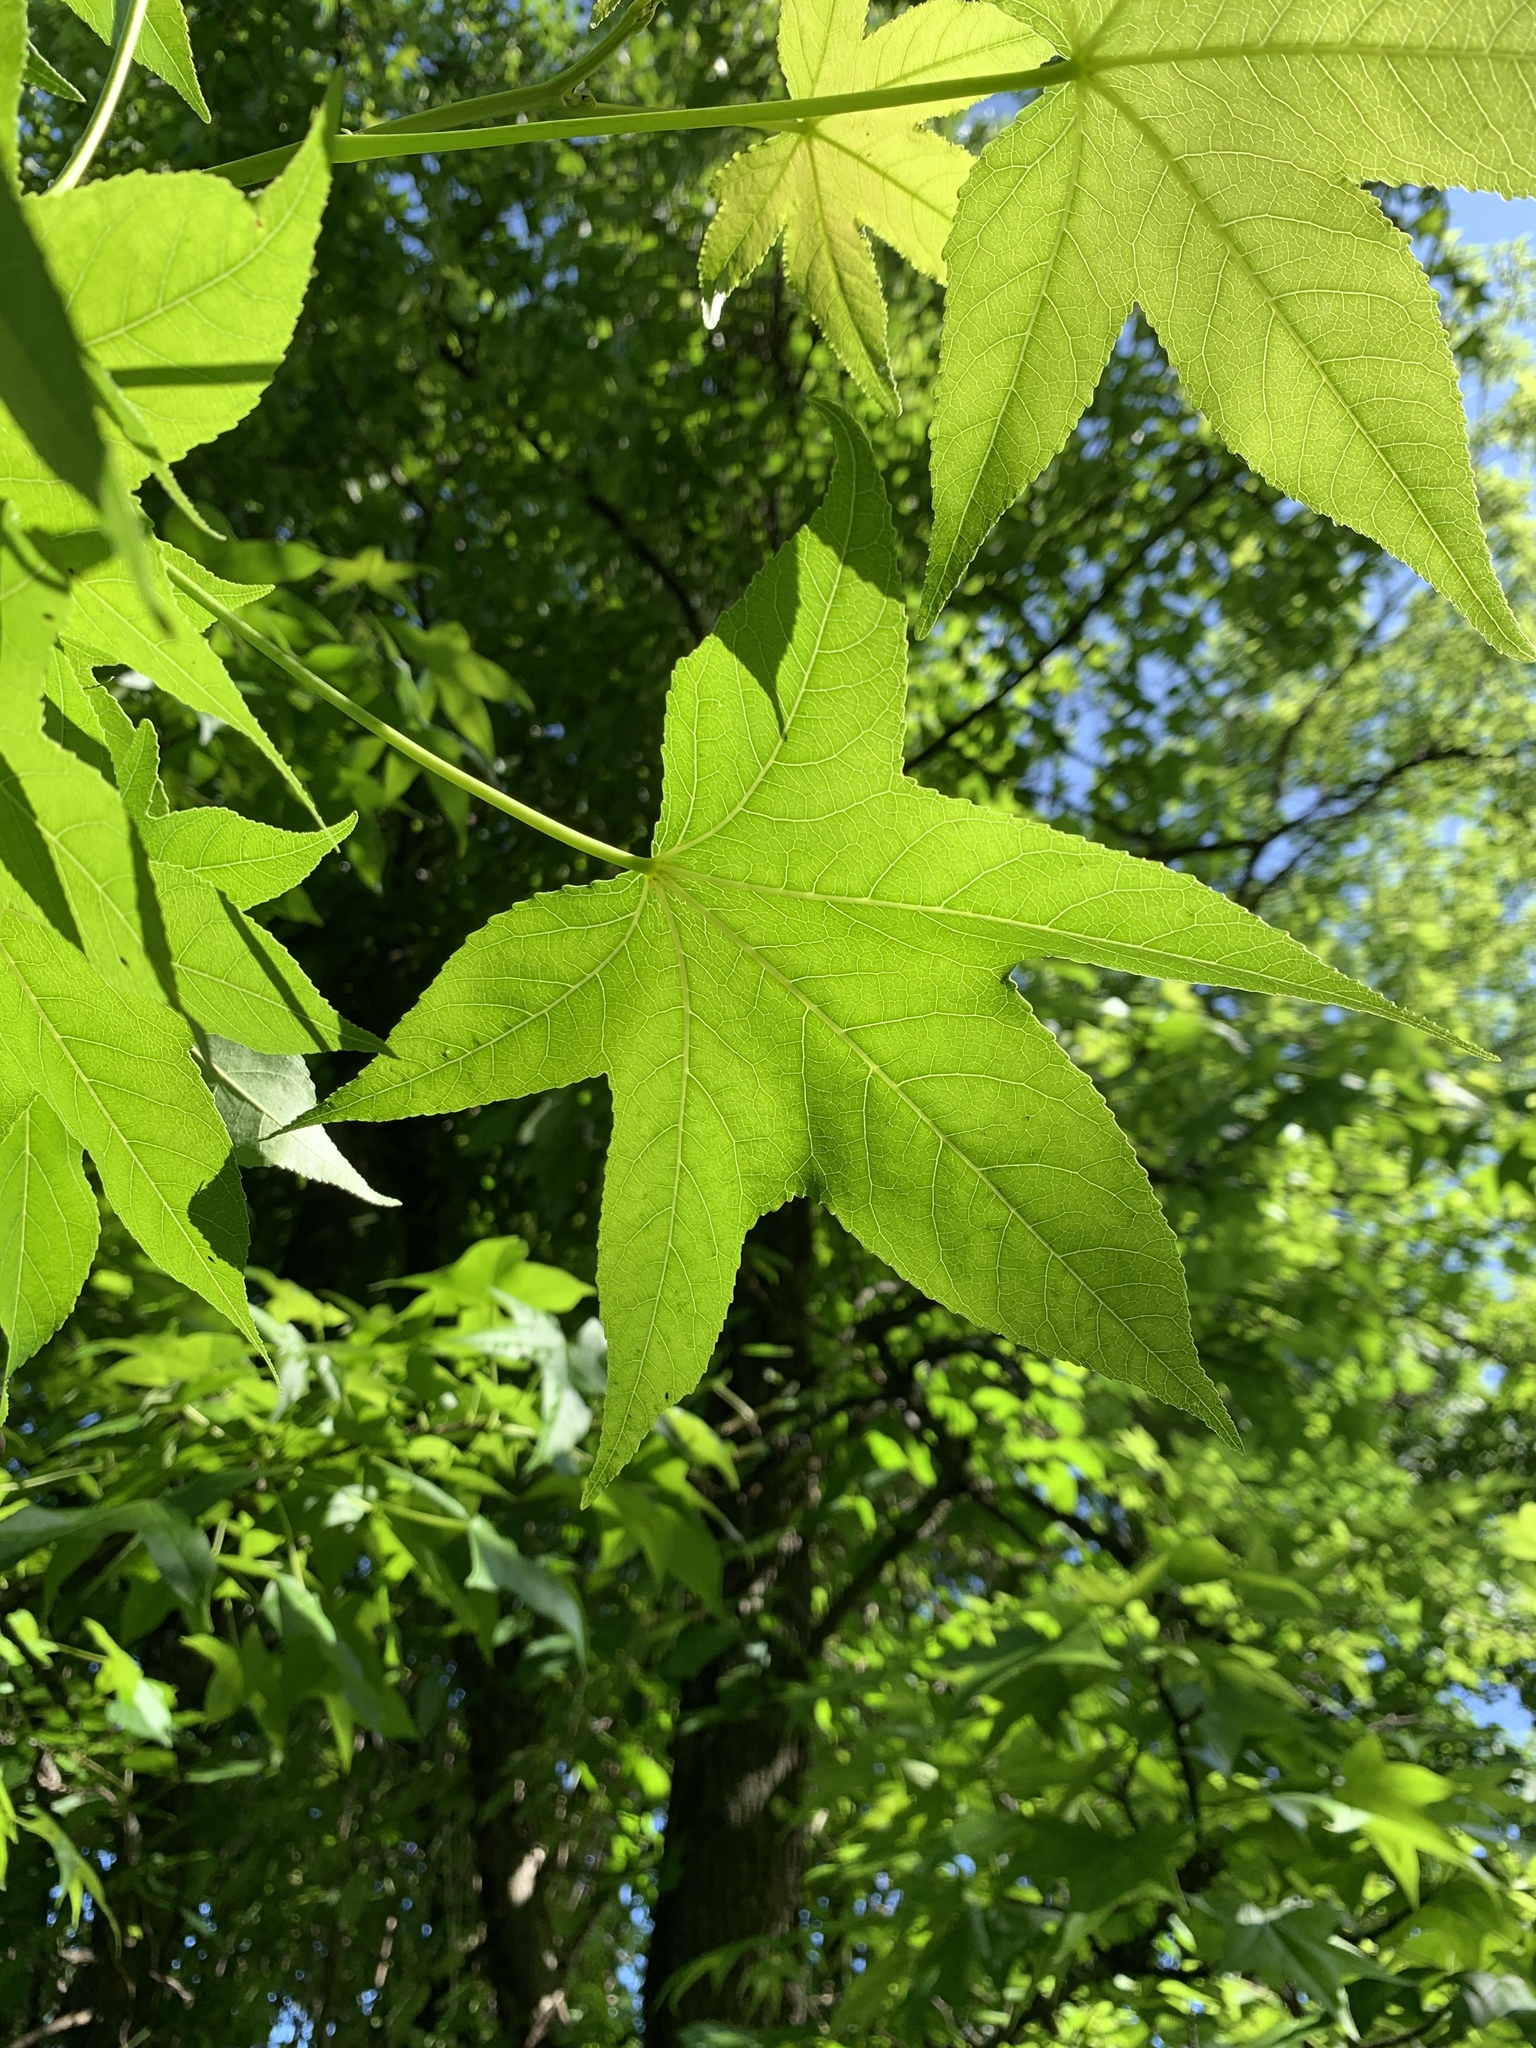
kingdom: Plantae
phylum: Tracheophyta
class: Magnoliopsida
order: Saxifragales
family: Altingiaceae
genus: Liquidambar
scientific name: Liquidambar styraciflua
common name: Sweet gum
